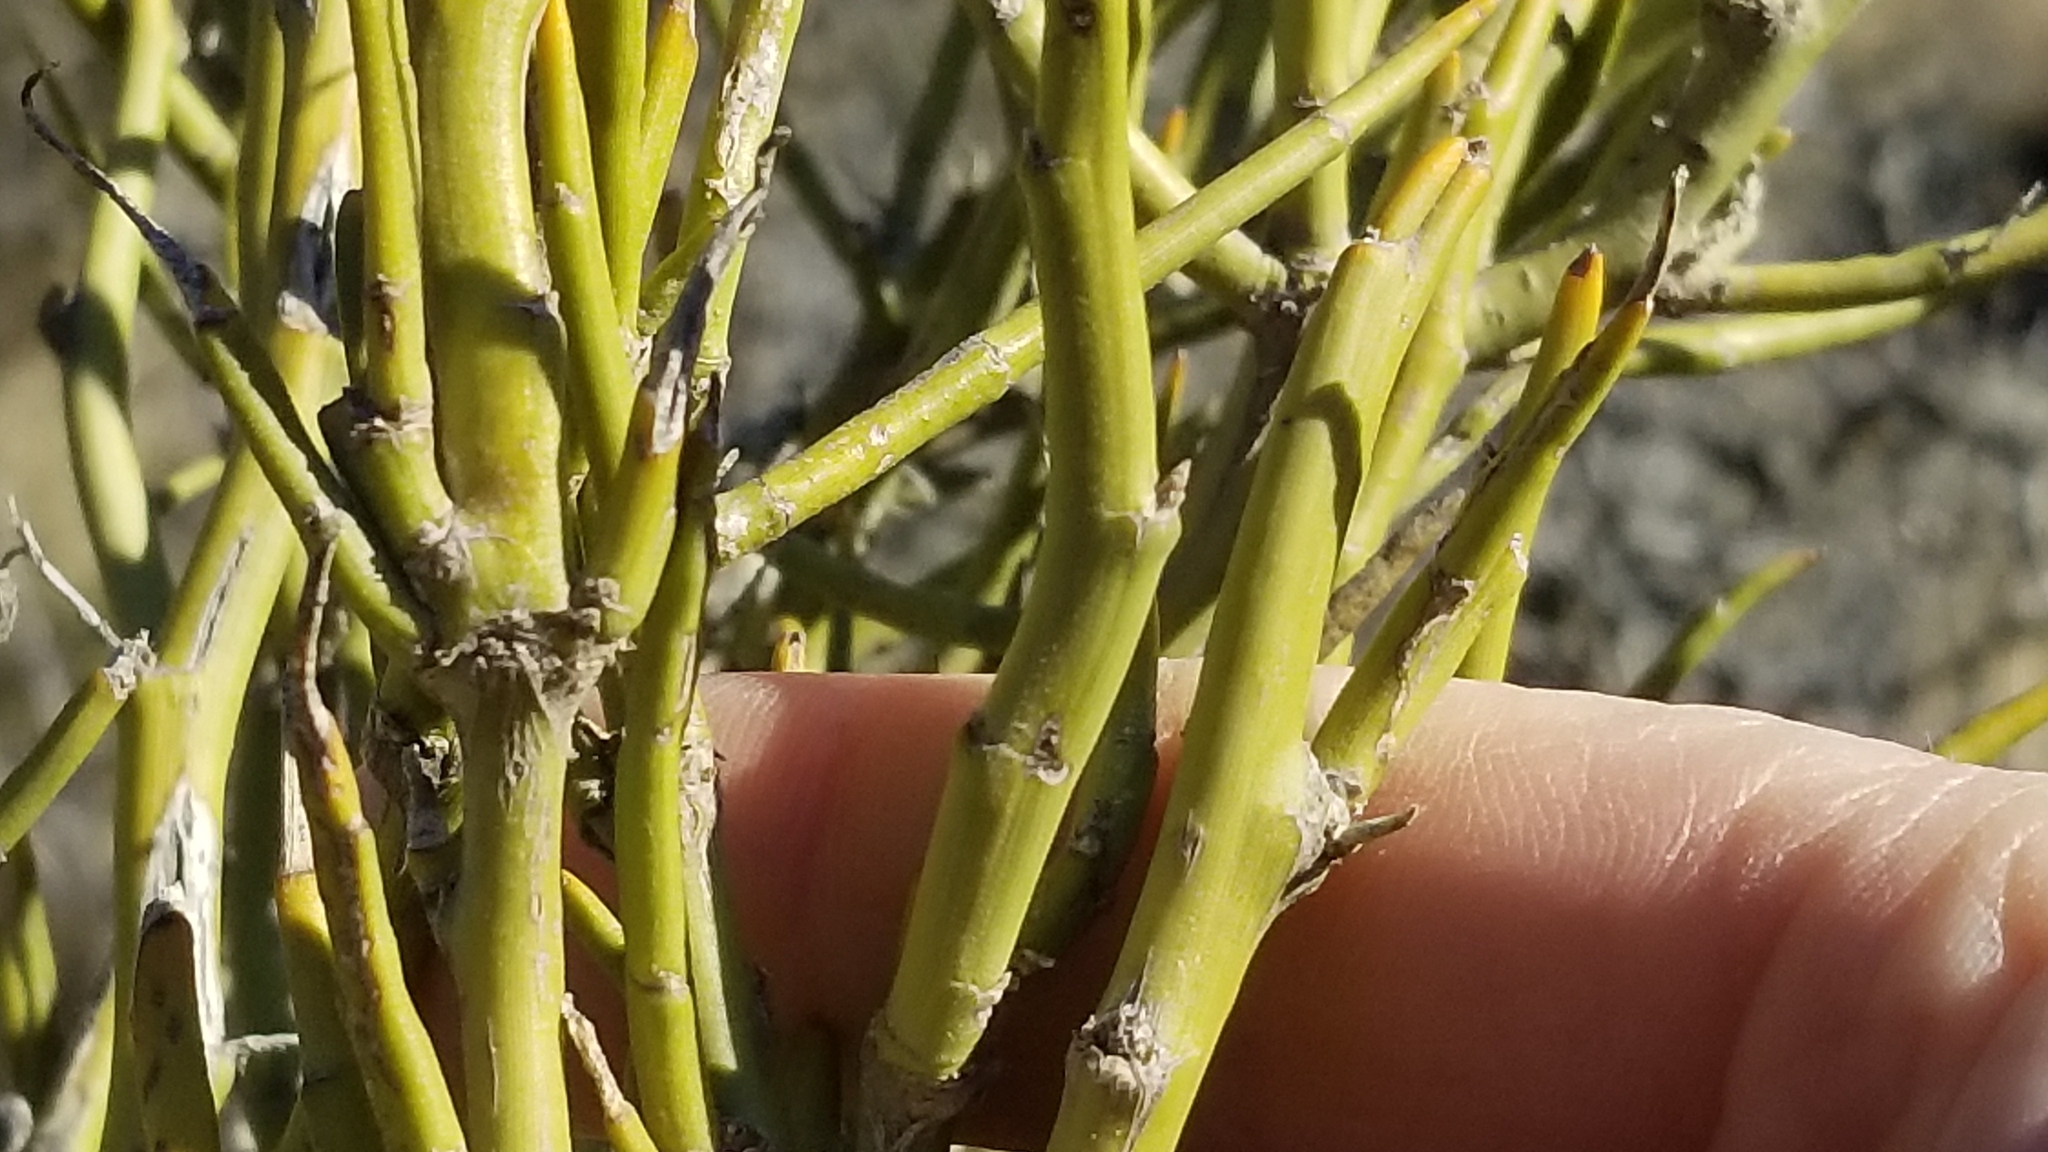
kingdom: Plantae
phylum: Tracheophyta
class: Magnoliopsida
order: Fabales
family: Fabaceae
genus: Carmichaelia
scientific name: Carmichaelia petriei
